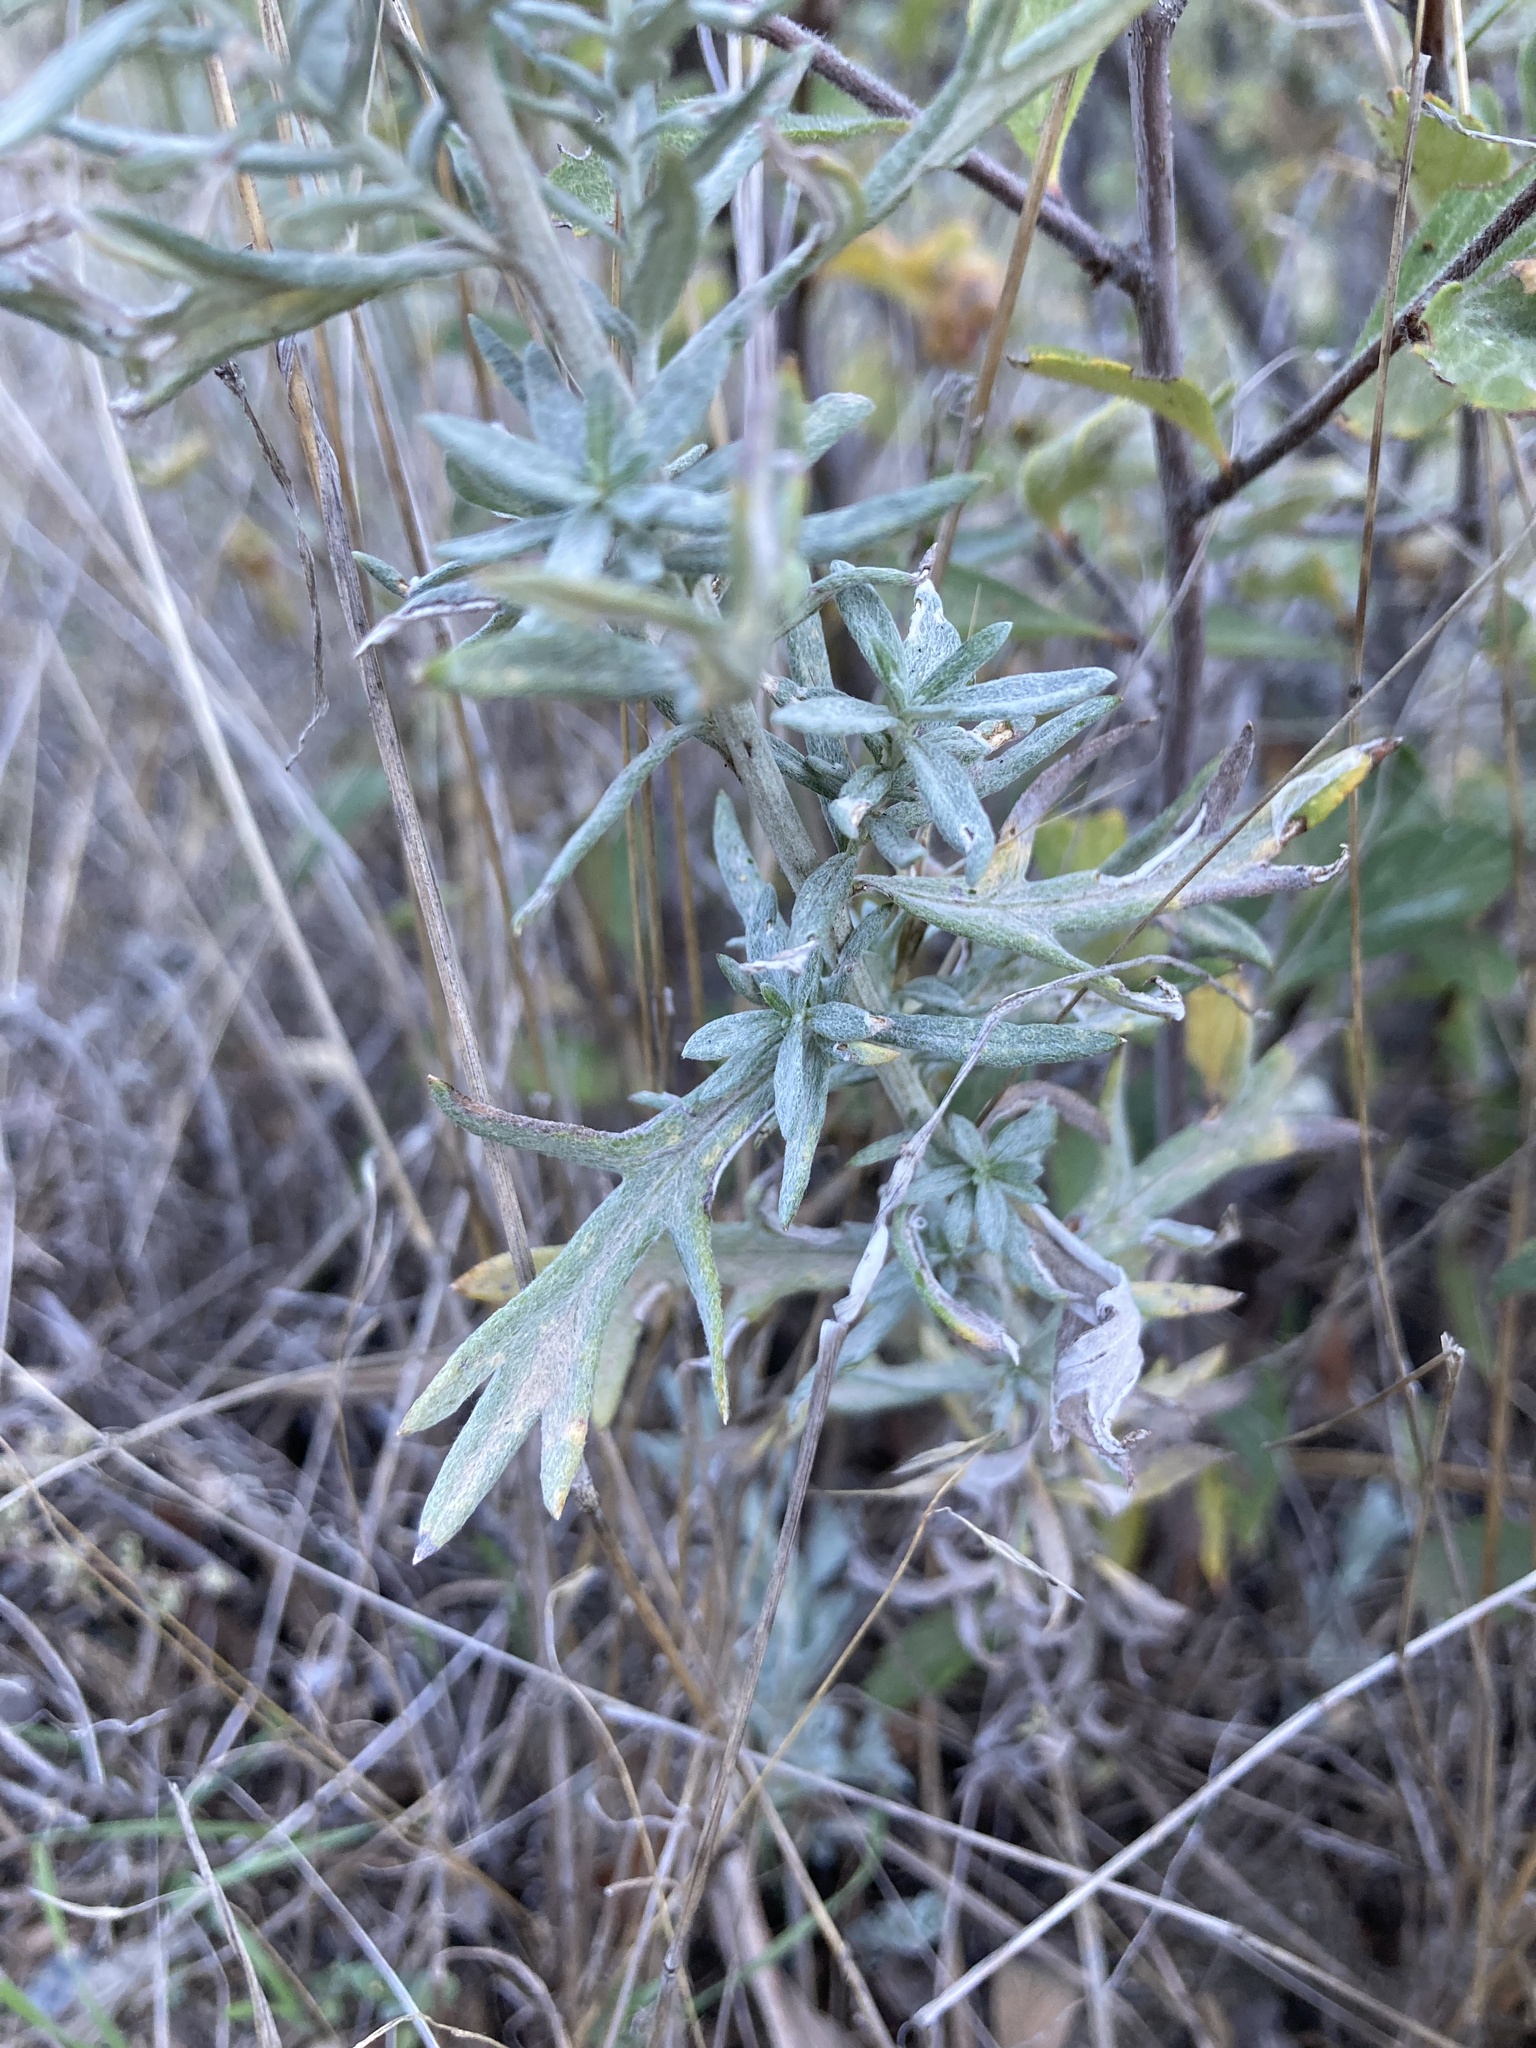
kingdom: Plantae
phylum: Tracheophyta
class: Magnoliopsida
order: Asterales
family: Asteraceae
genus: Artemisia
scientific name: Artemisia ludoviciana
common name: Western mugwort
